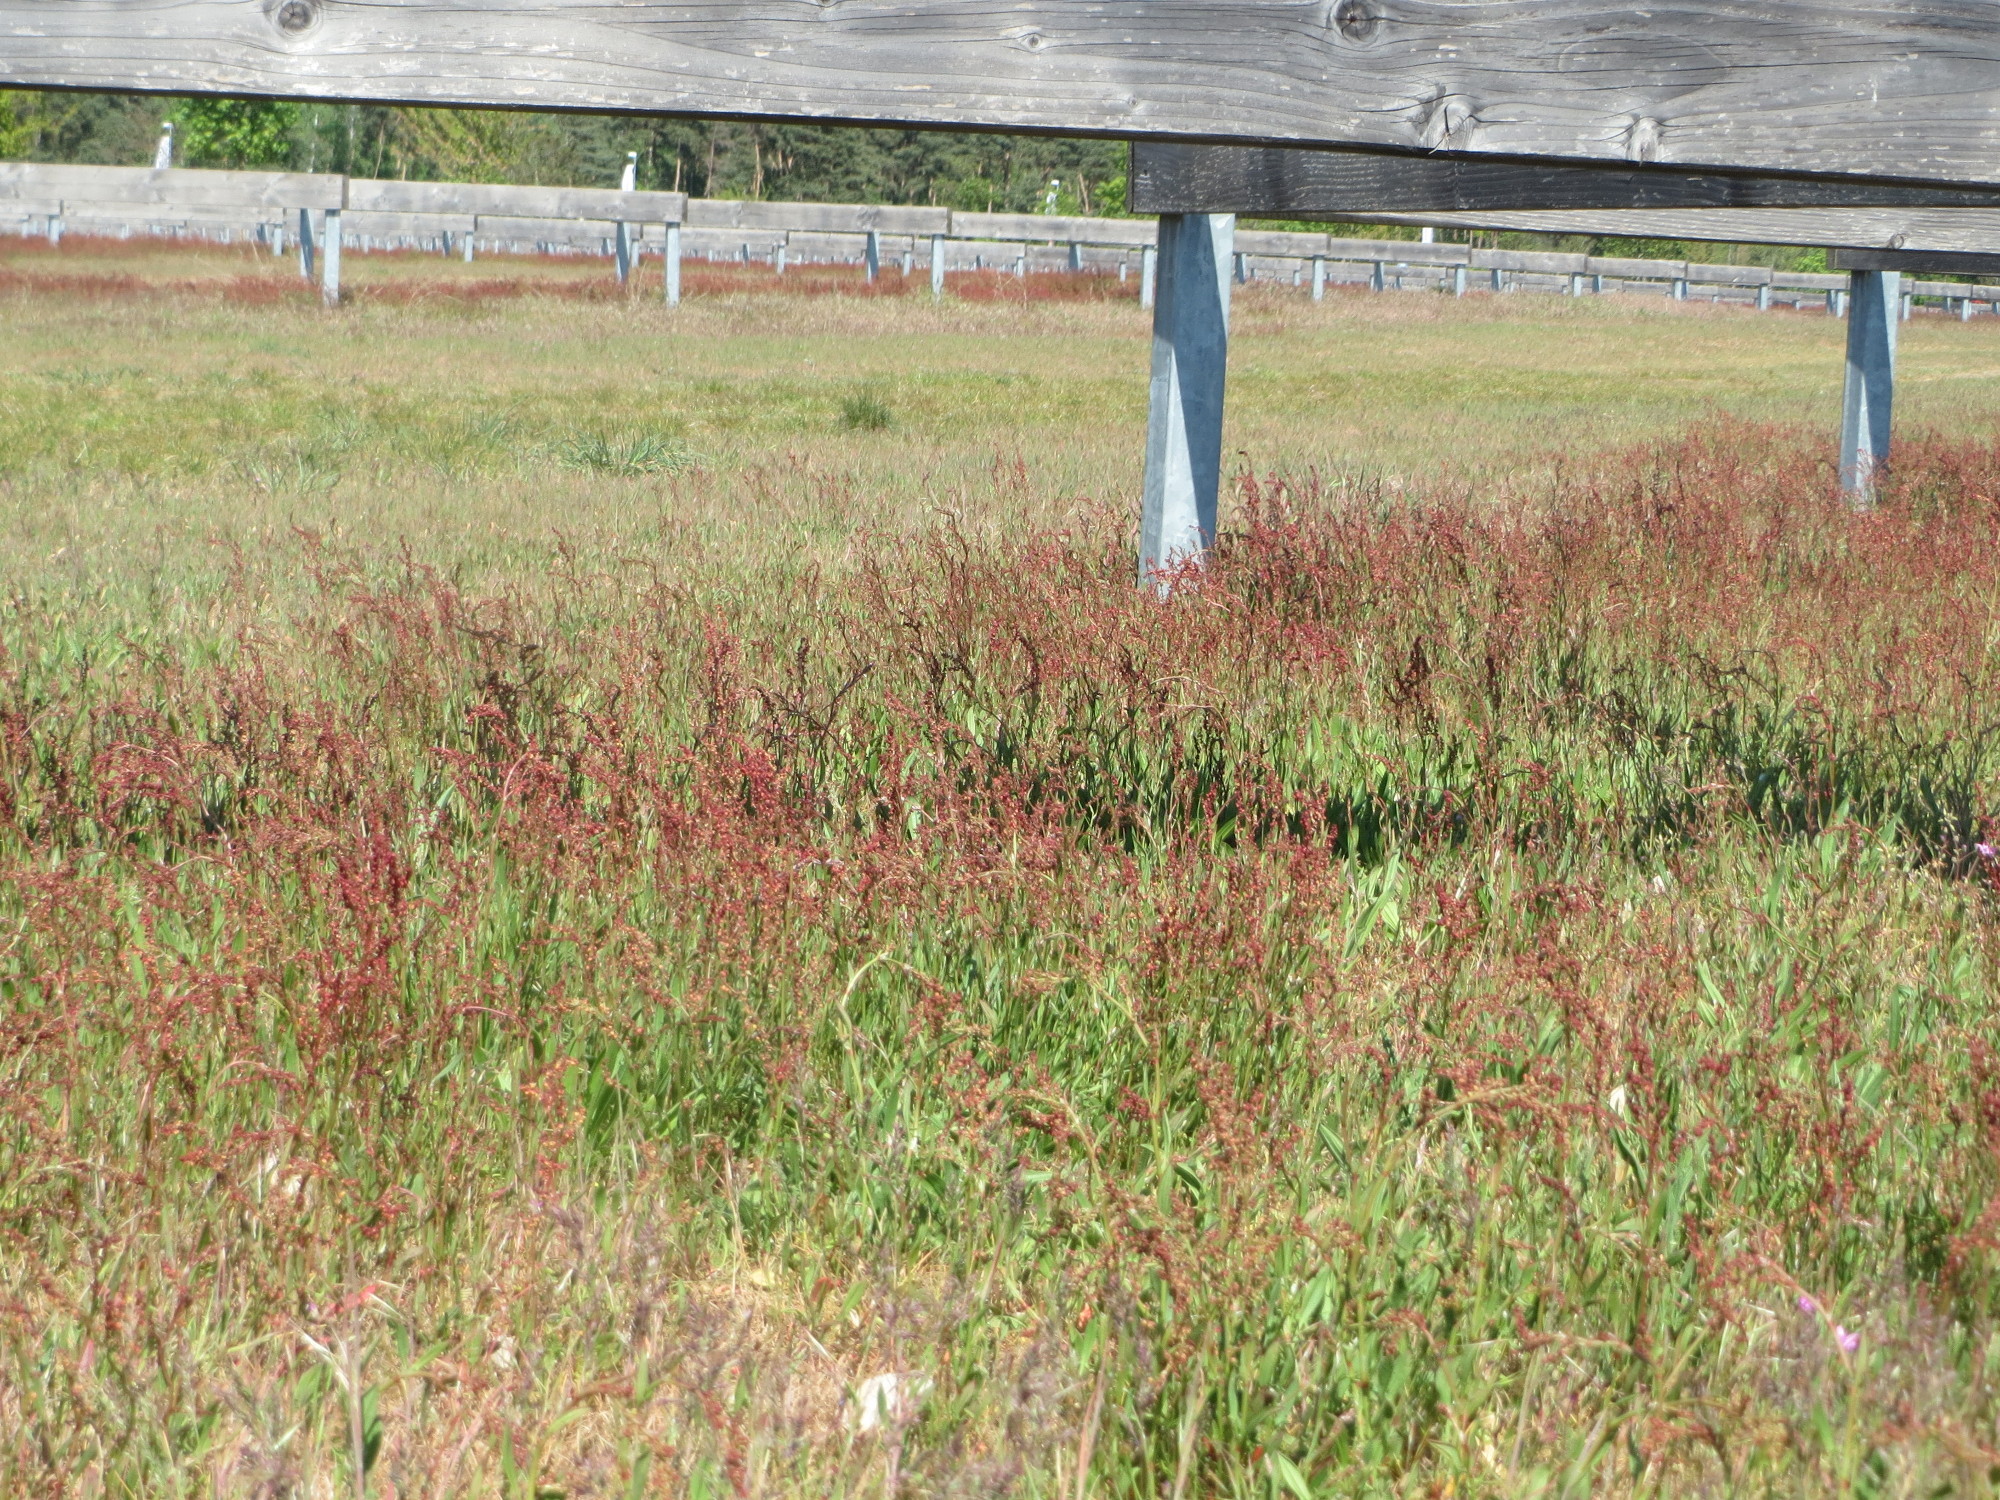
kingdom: Plantae
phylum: Tracheophyta
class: Magnoliopsida
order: Caryophyllales
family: Polygonaceae
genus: Rumex
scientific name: Rumex acetosella
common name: Common sheep sorrel
